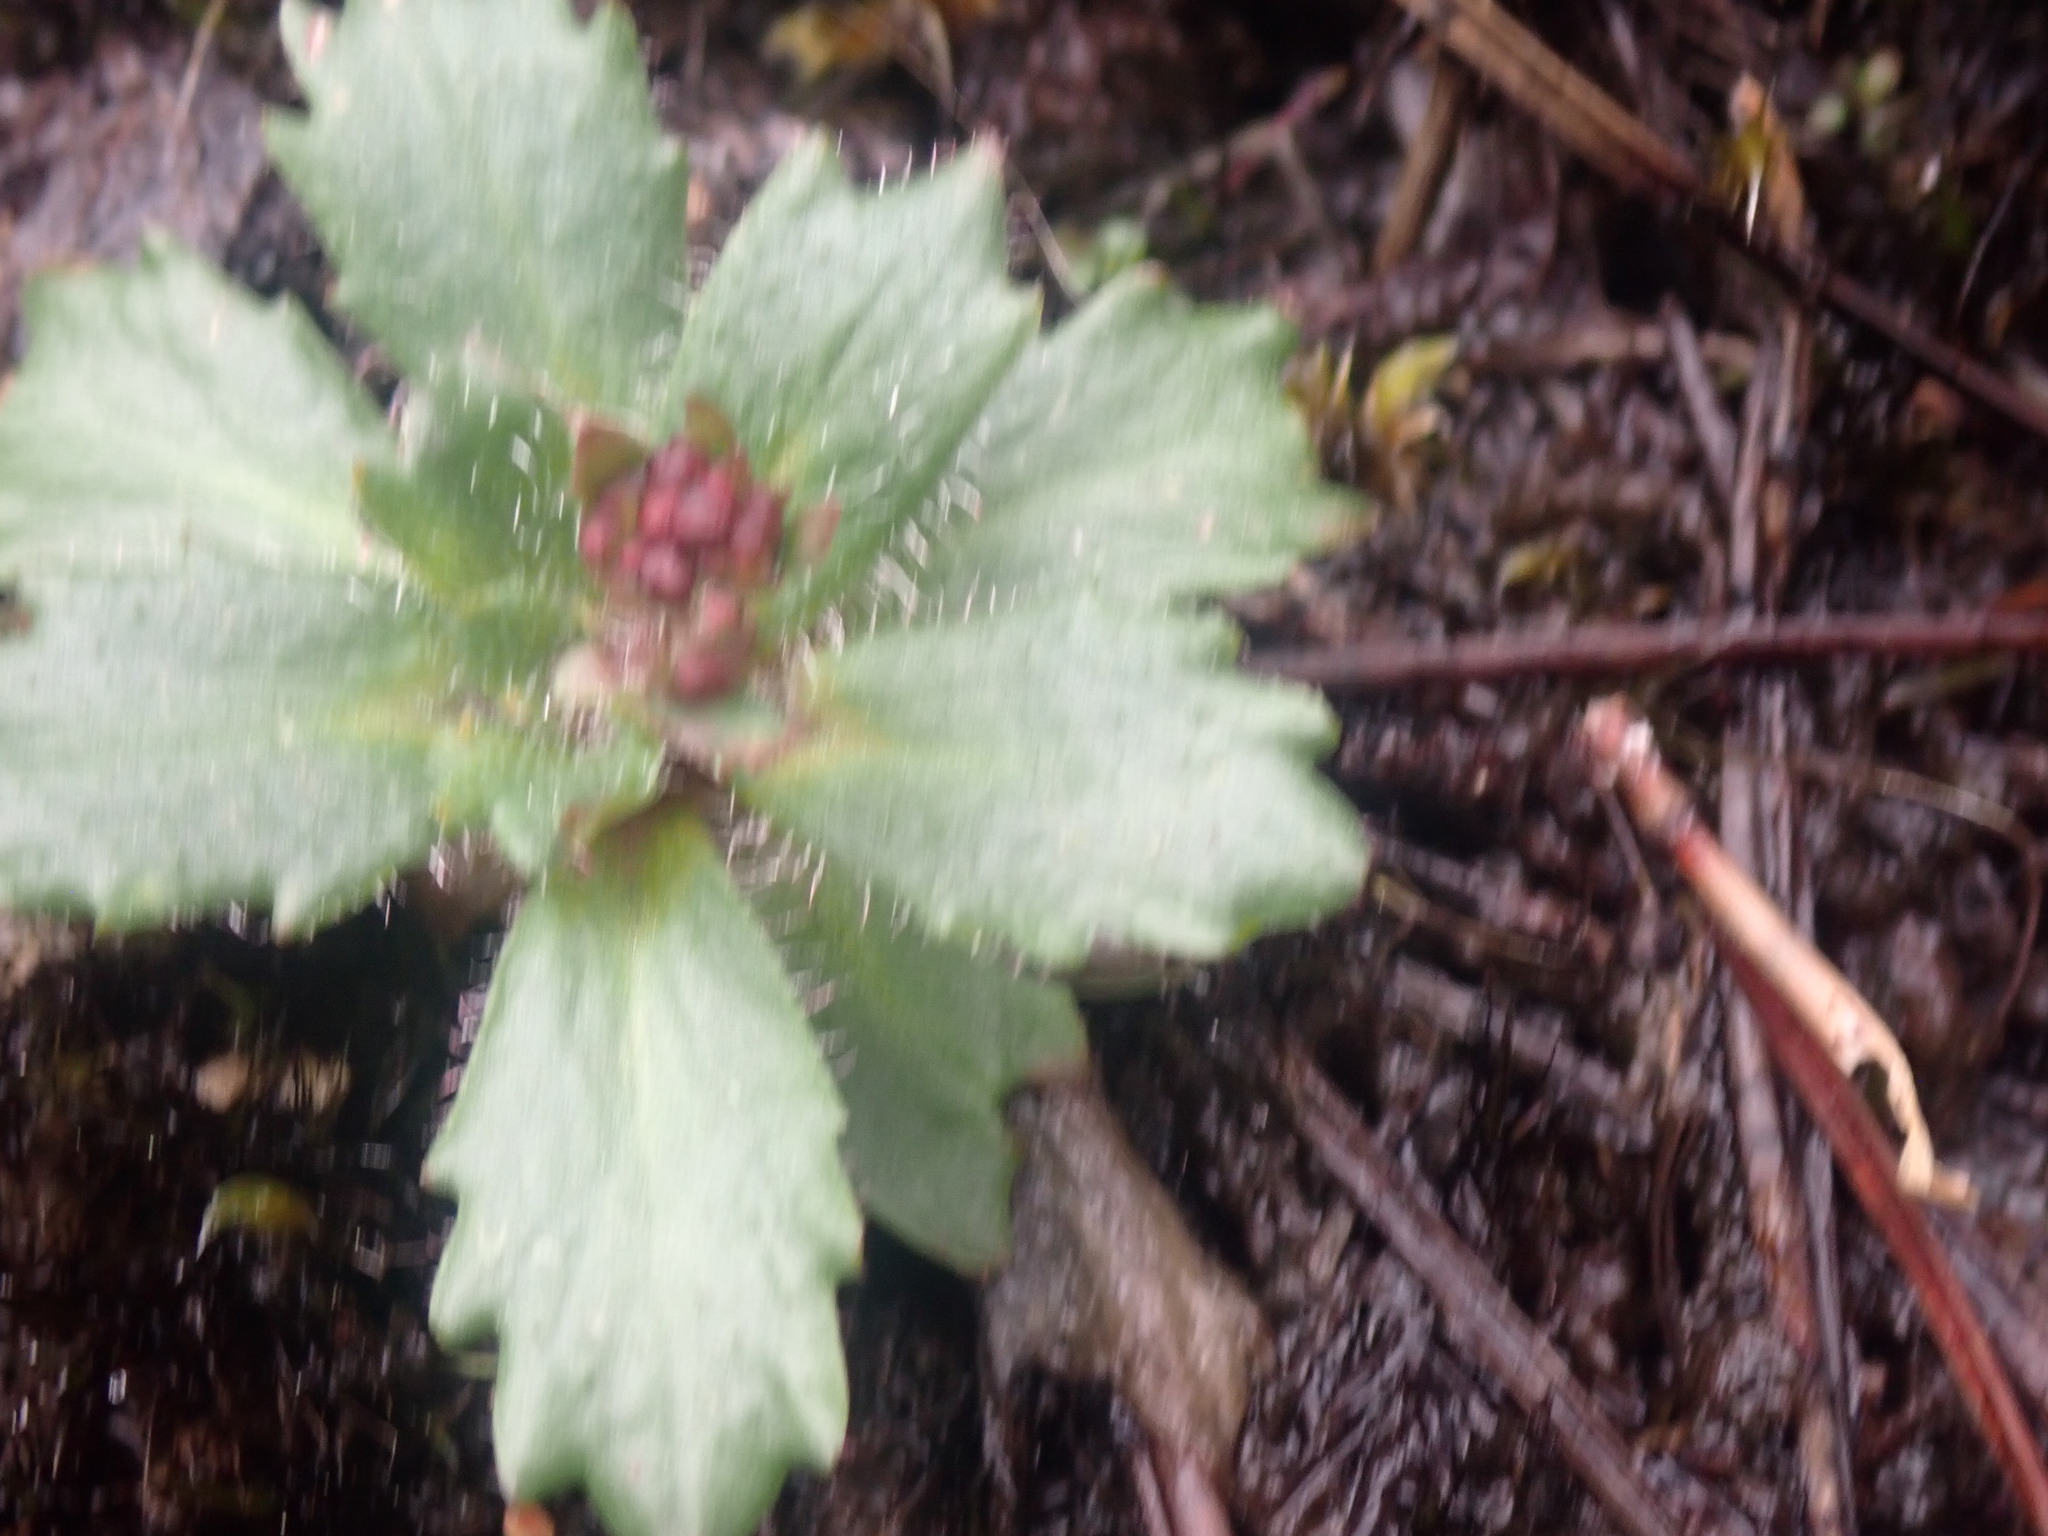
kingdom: Plantae
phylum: Tracheophyta
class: Magnoliopsida
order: Saxifragales
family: Saxifragaceae
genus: Micranthes
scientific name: Micranthes ferruginea
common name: Rusty saxifrage
